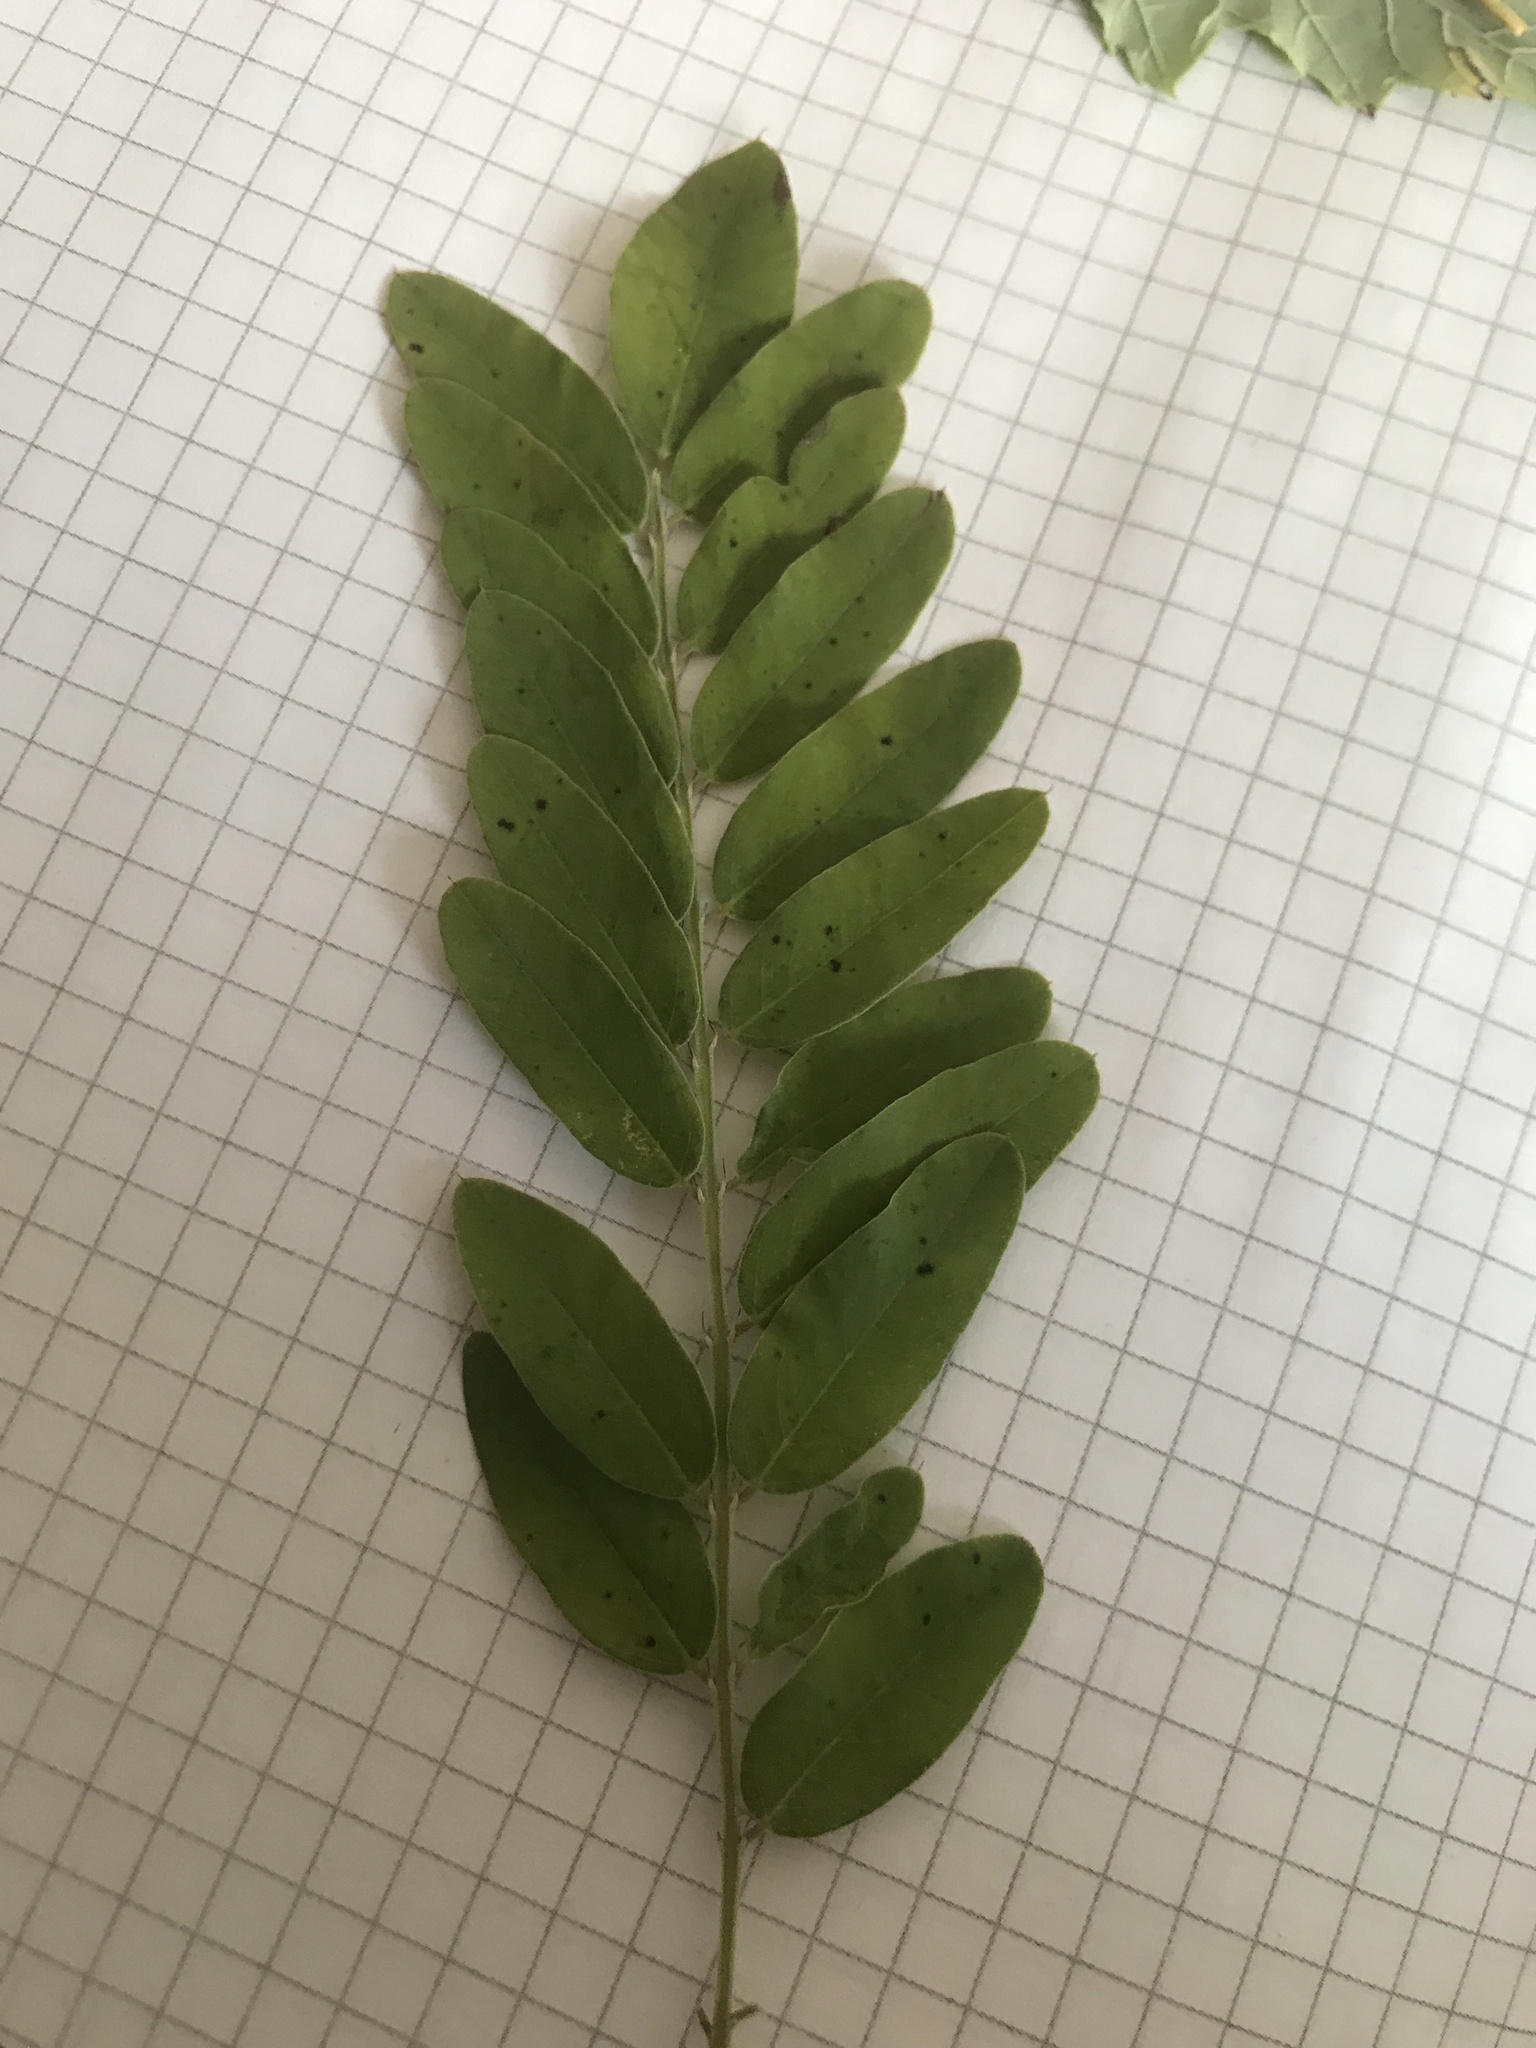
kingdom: Plantae
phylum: Tracheophyta
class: Magnoliopsida
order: Fabales
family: Fabaceae
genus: Gleditsia
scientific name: Gleditsia triacanthos
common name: Common honeylocust
